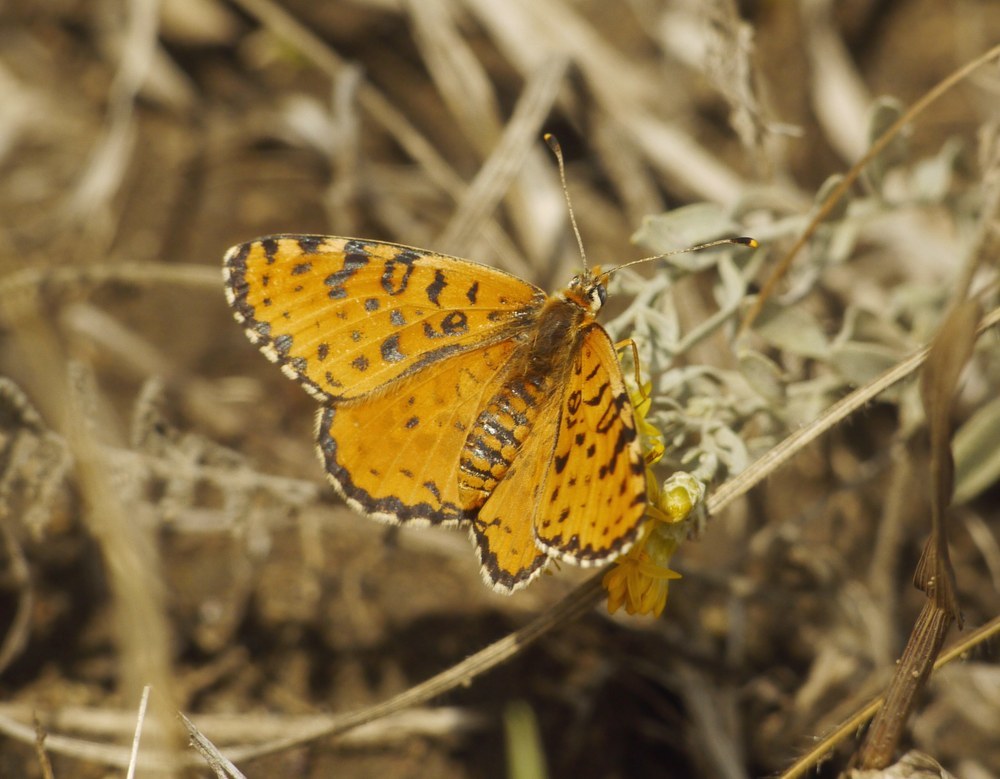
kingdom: Animalia
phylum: Arthropoda
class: Insecta
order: Lepidoptera
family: Nymphalidae
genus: Melitaea
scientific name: Melitaea didyma
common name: Spotted fritillary
